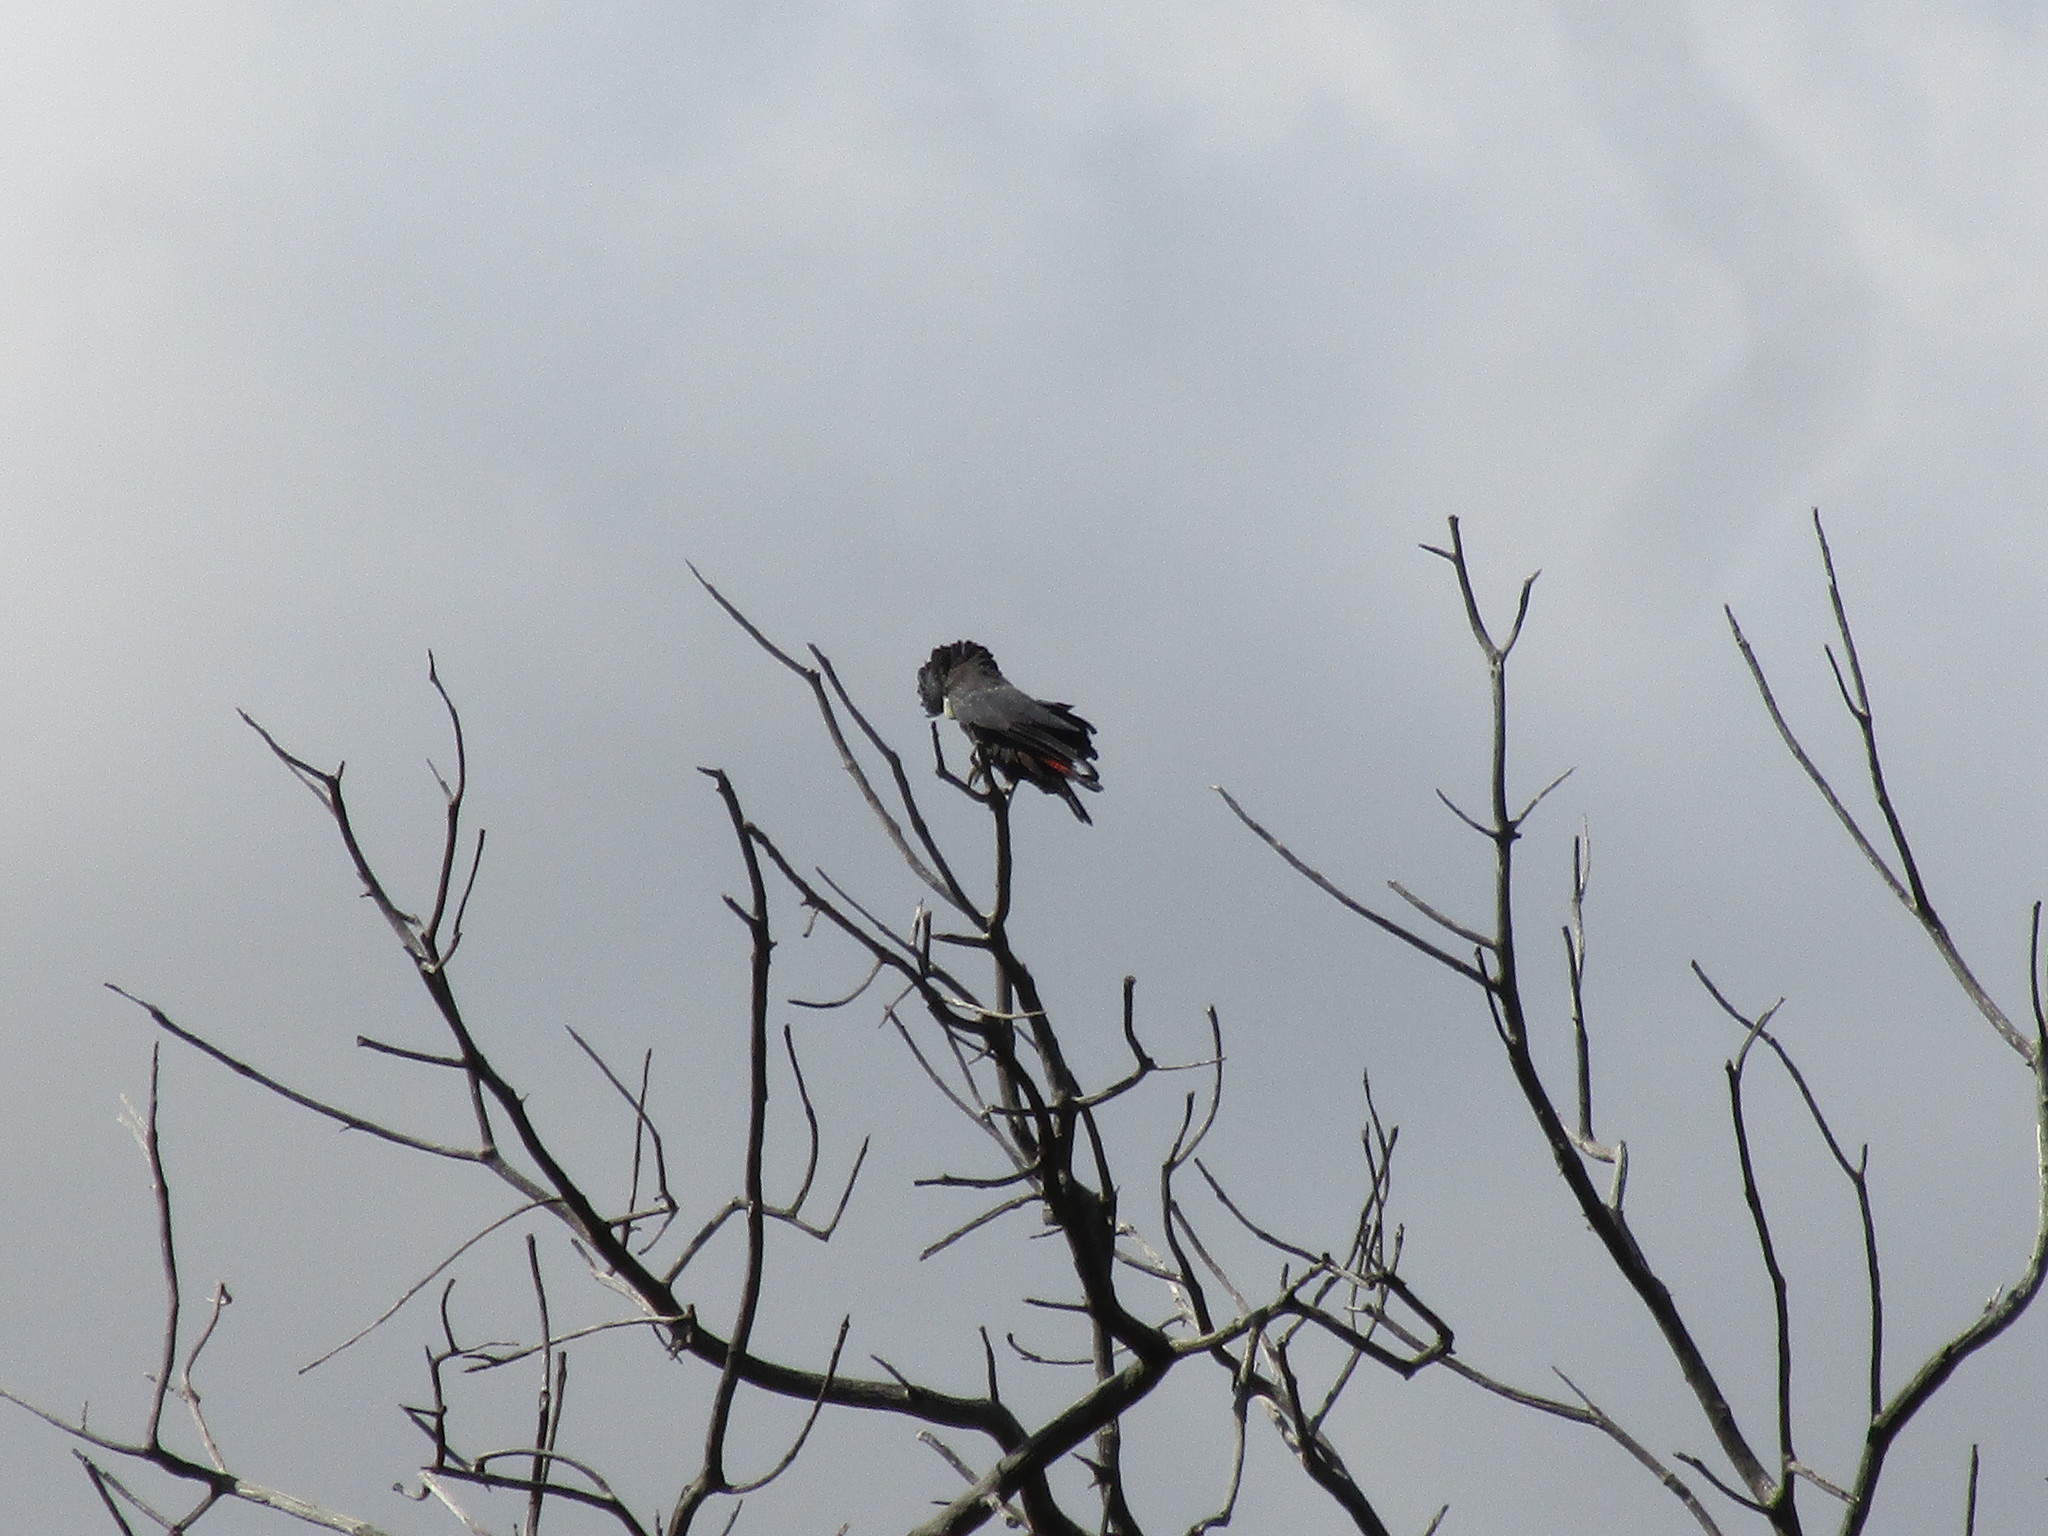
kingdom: Animalia
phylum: Chordata
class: Aves
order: Psittaciformes
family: Psittacidae
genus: Calyptorhynchus
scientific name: Calyptorhynchus banksii
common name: Red-tailed black cockatoo
